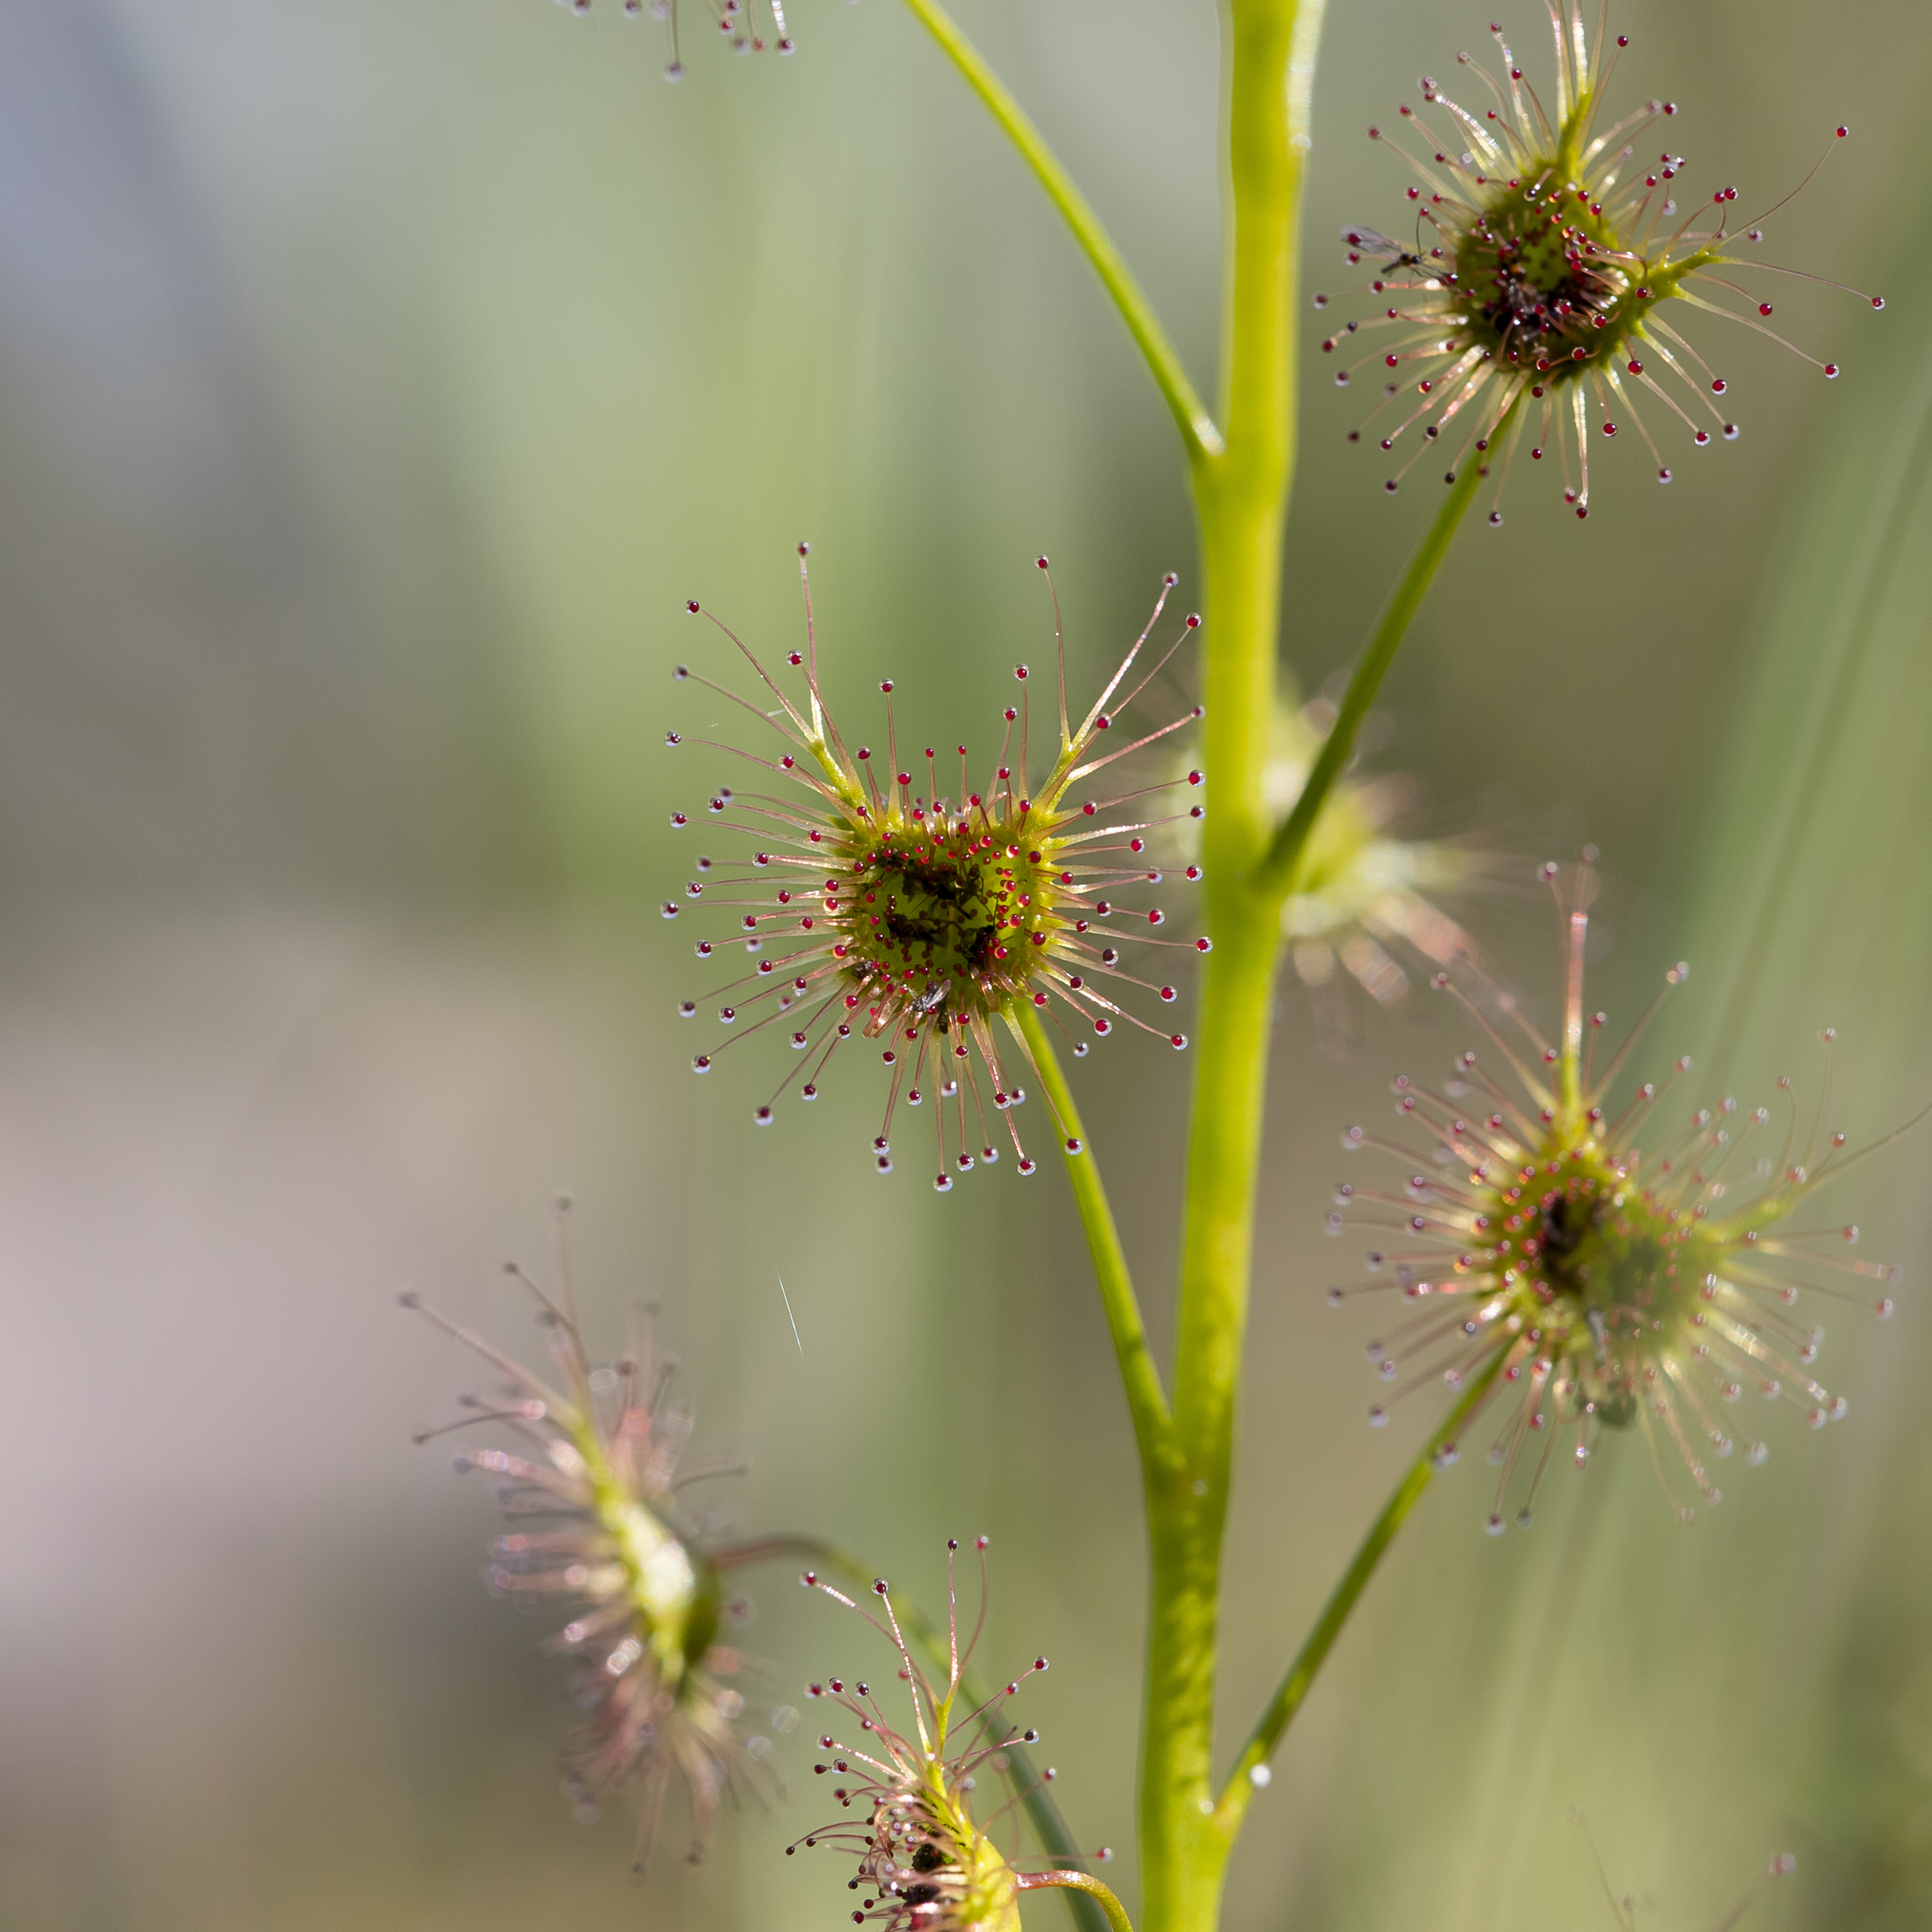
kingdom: Plantae
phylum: Tracheophyta
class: Magnoliopsida
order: Caryophyllales
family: Droseraceae
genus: Drosera
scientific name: Drosera peltata
